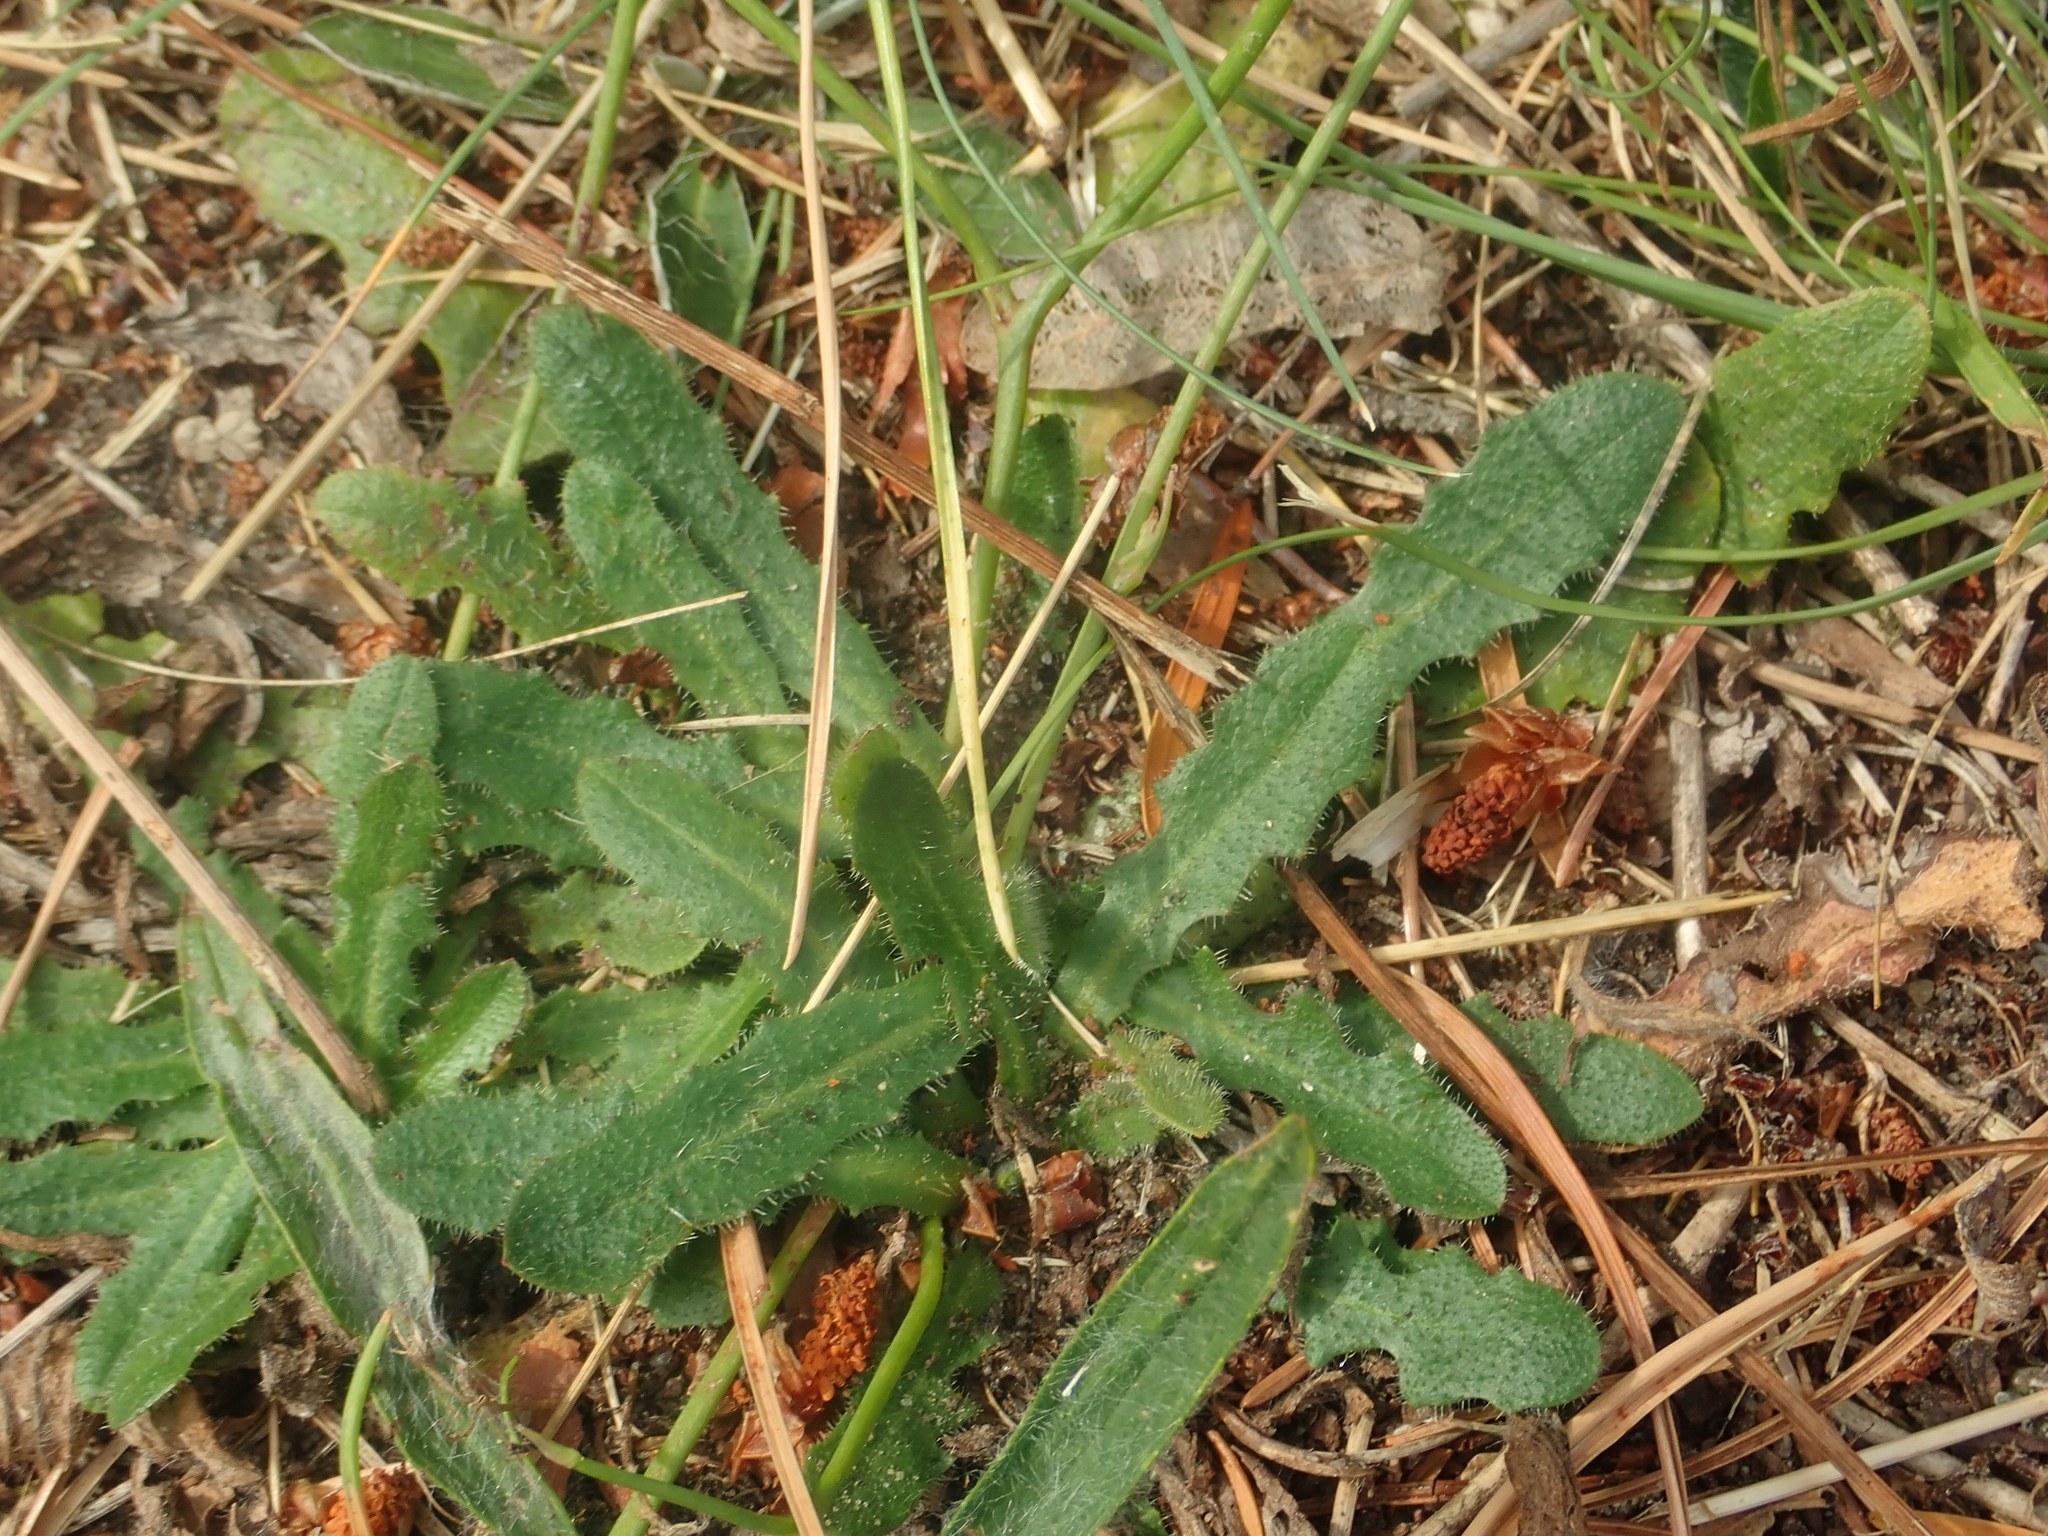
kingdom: Plantae
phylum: Tracheophyta
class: Magnoliopsida
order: Asterales
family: Asteraceae
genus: Hypochaeris
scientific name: Hypochaeris radicata
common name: Flatweed
